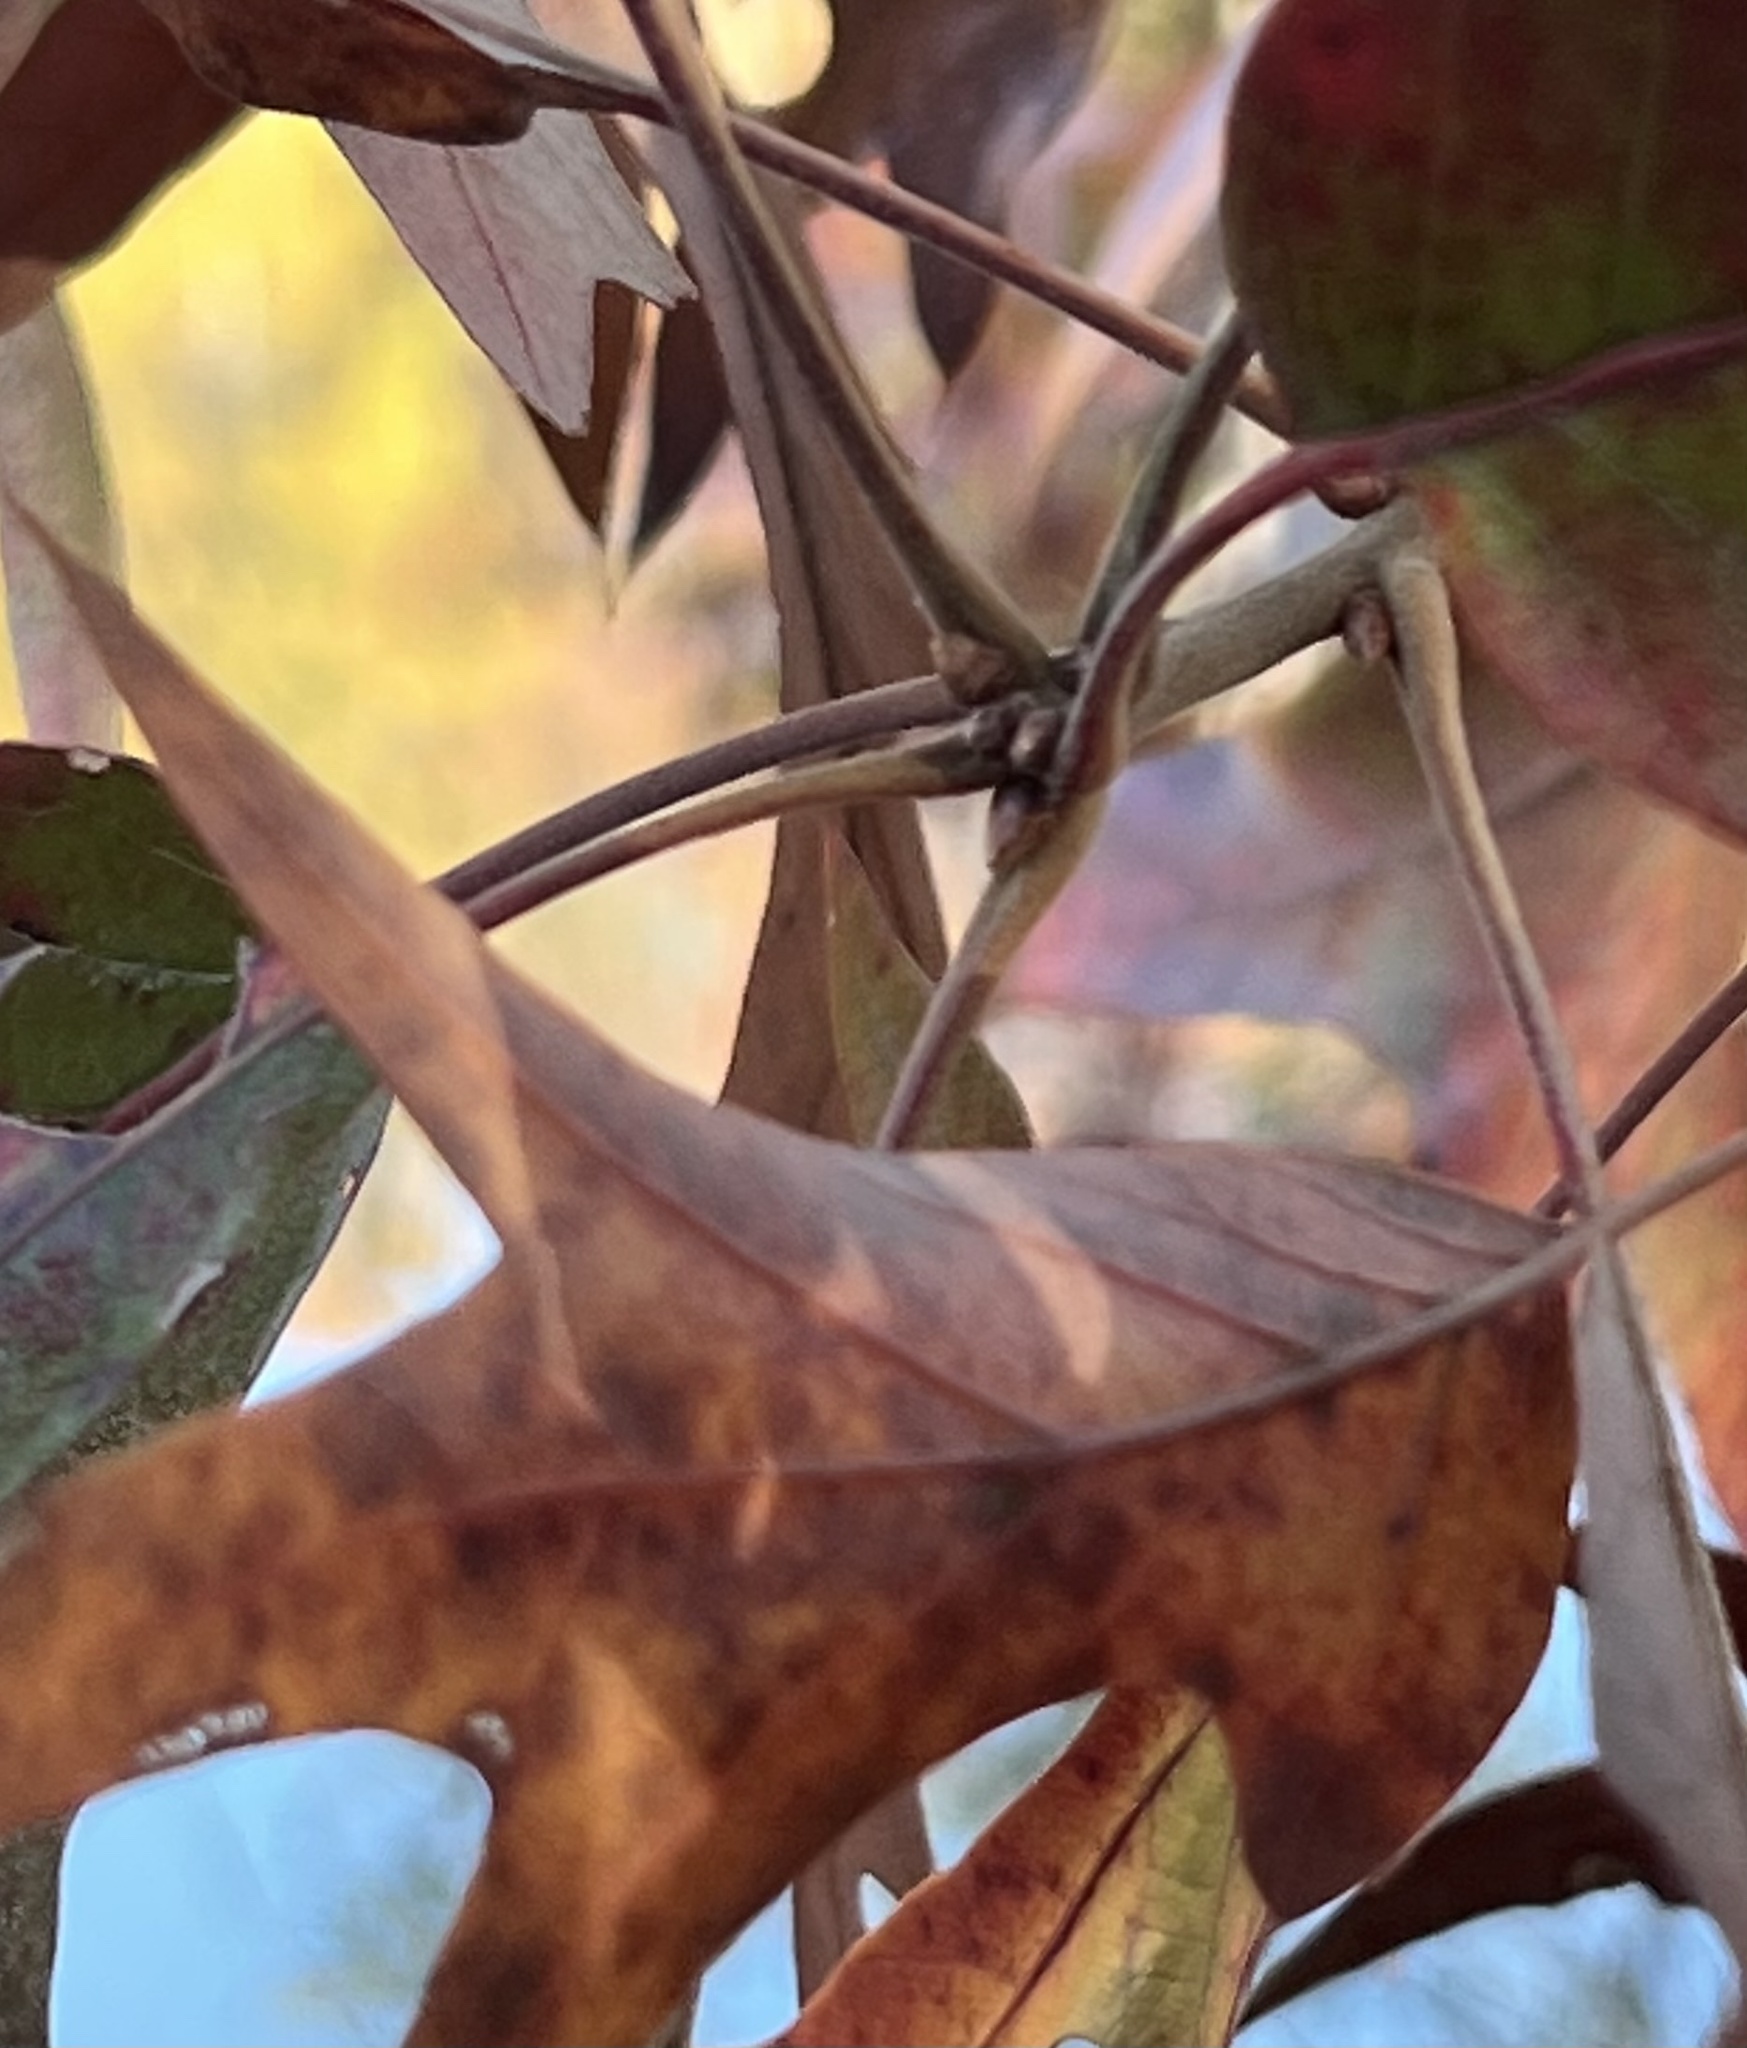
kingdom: Plantae
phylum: Tracheophyta
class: Magnoliopsida
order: Fagales
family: Fagaceae
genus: Quercus
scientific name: Quercus falcata
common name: Southern red oak
